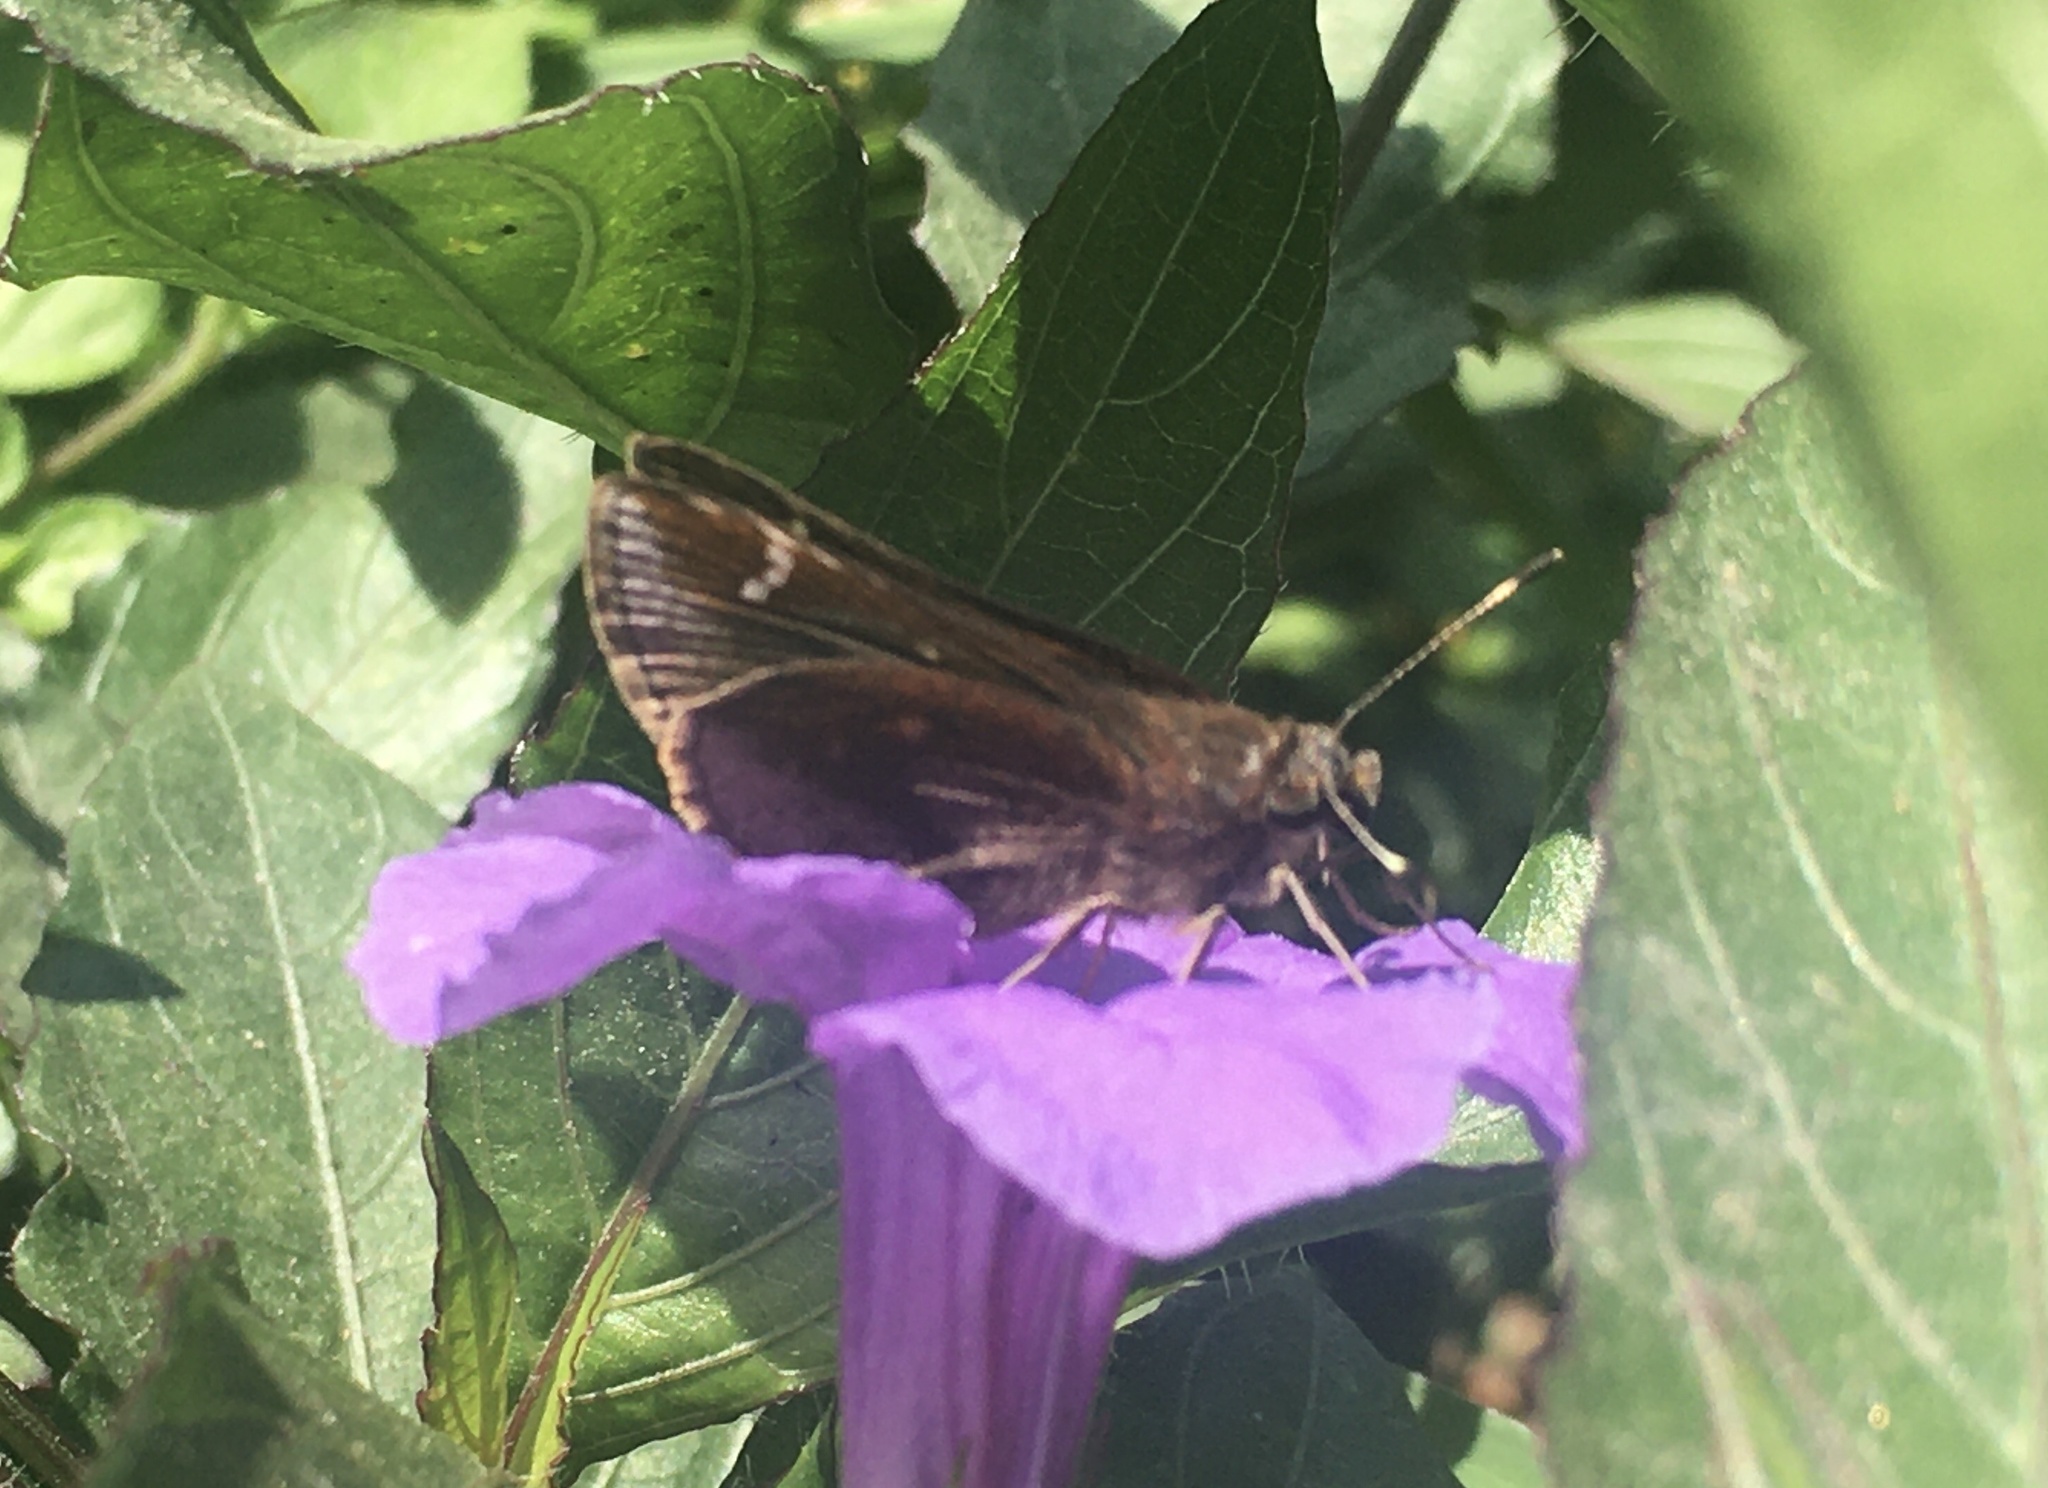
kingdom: Animalia
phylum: Arthropoda
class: Insecta
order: Lepidoptera
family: Hesperiidae
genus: Lerema
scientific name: Lerema accius
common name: Clouded skipper
